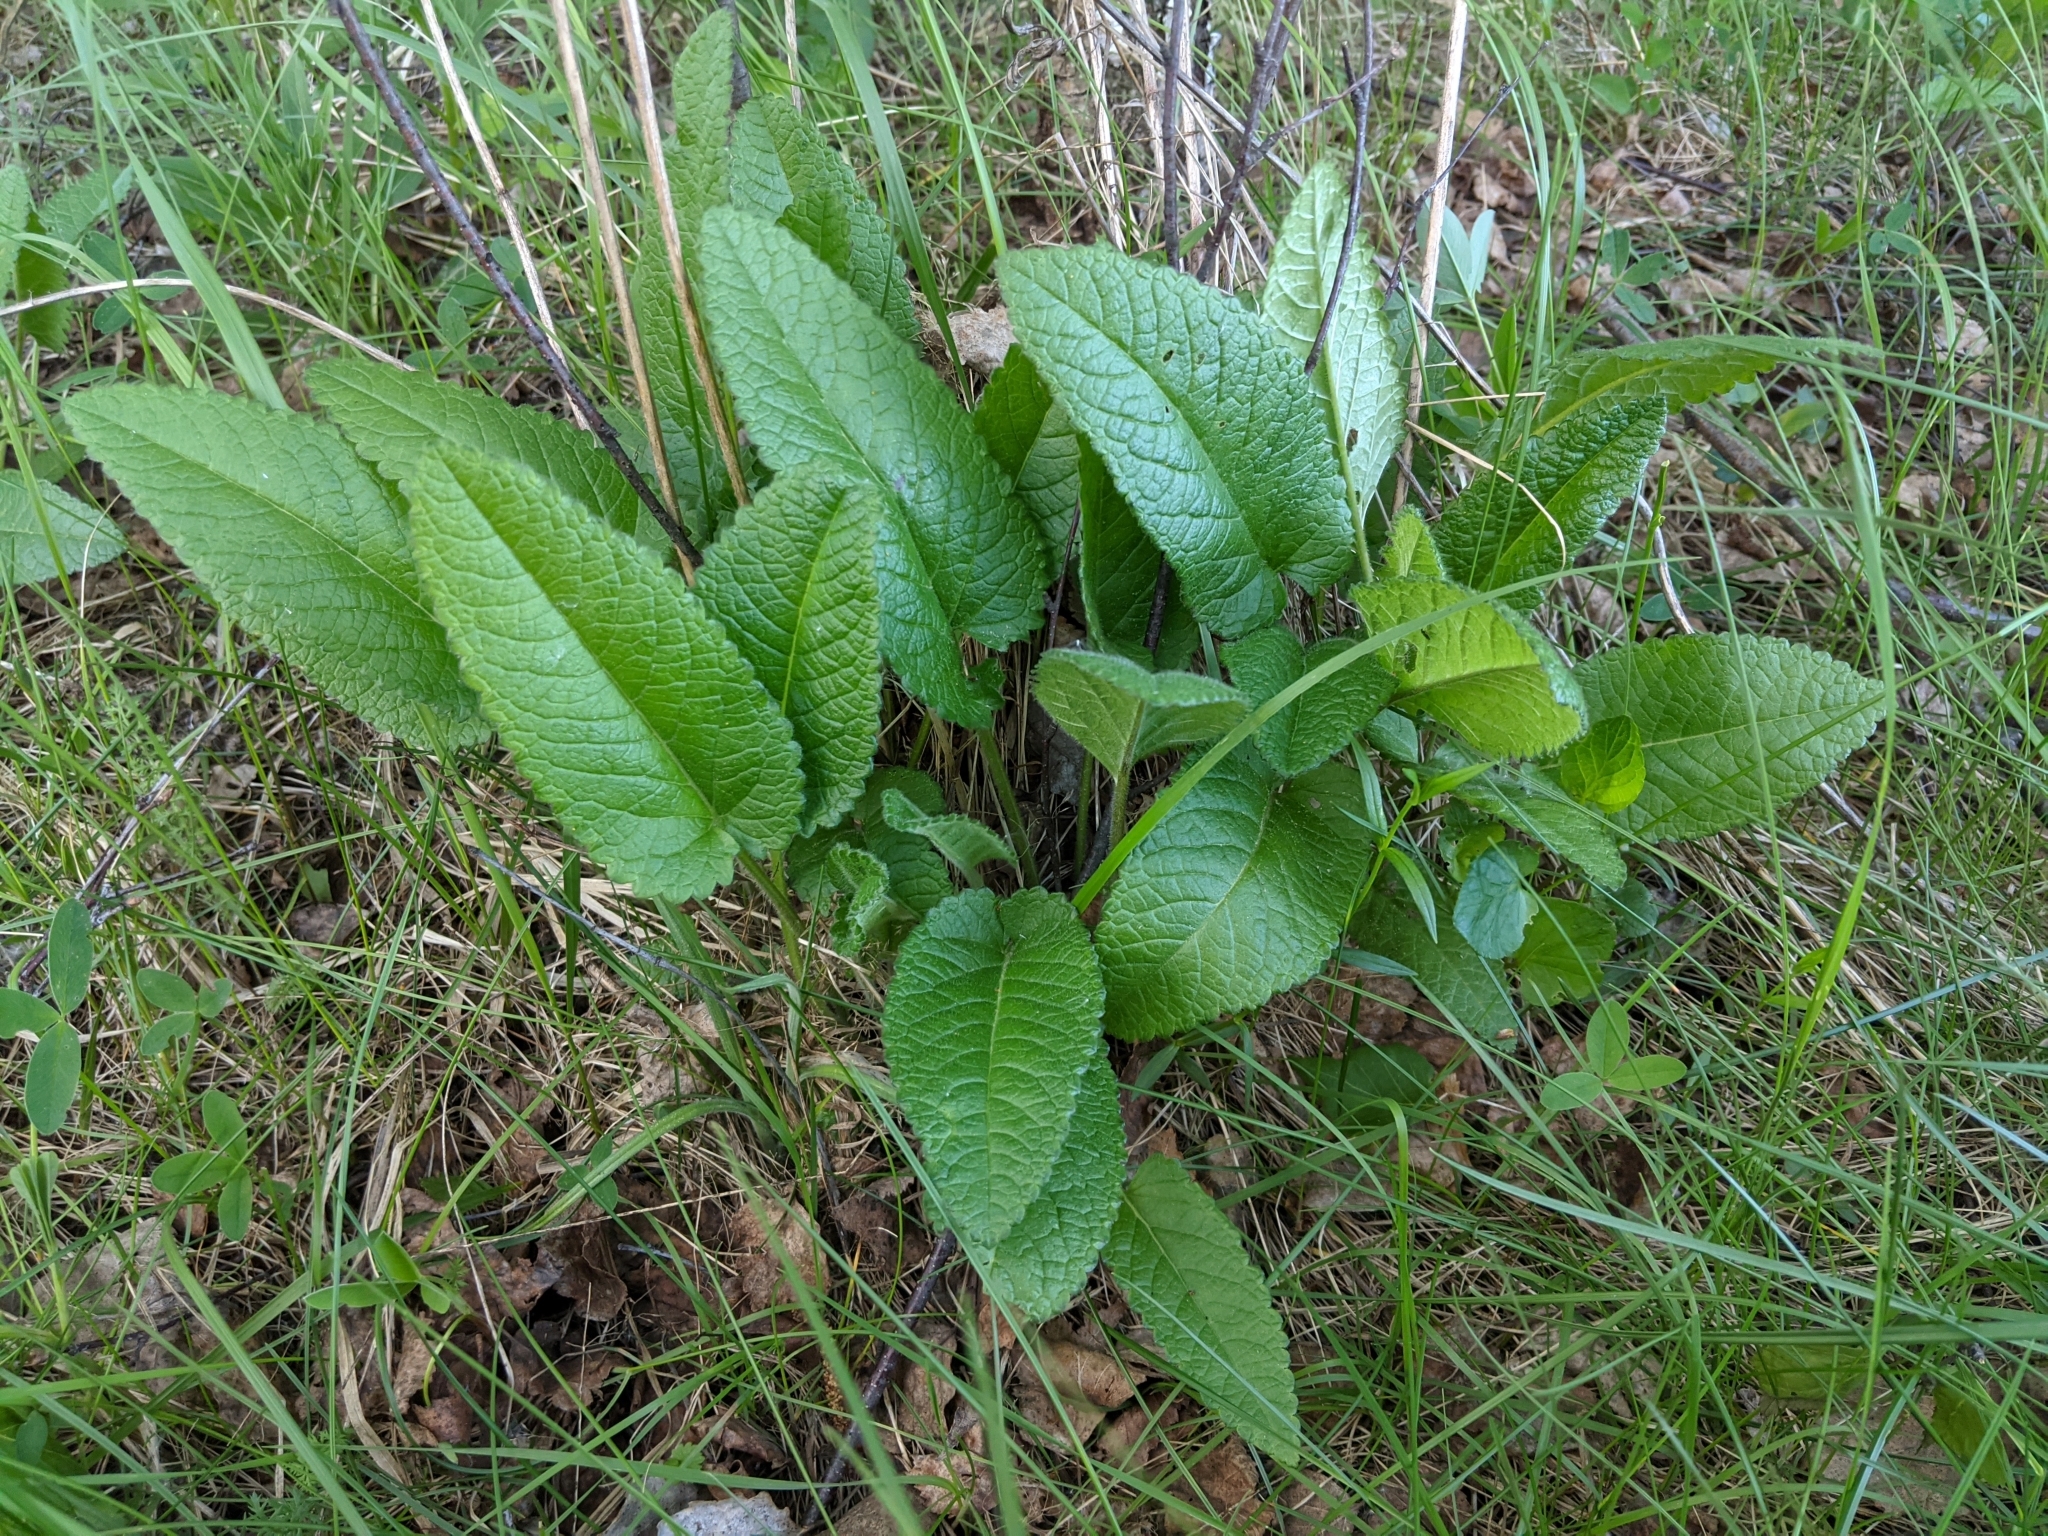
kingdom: Plantae
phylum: Tracheophyta
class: Magnoliopsida
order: Lamiales
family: Lamiaceae
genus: Betonica
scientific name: Betonica officinalis
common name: Bishop's-wort
